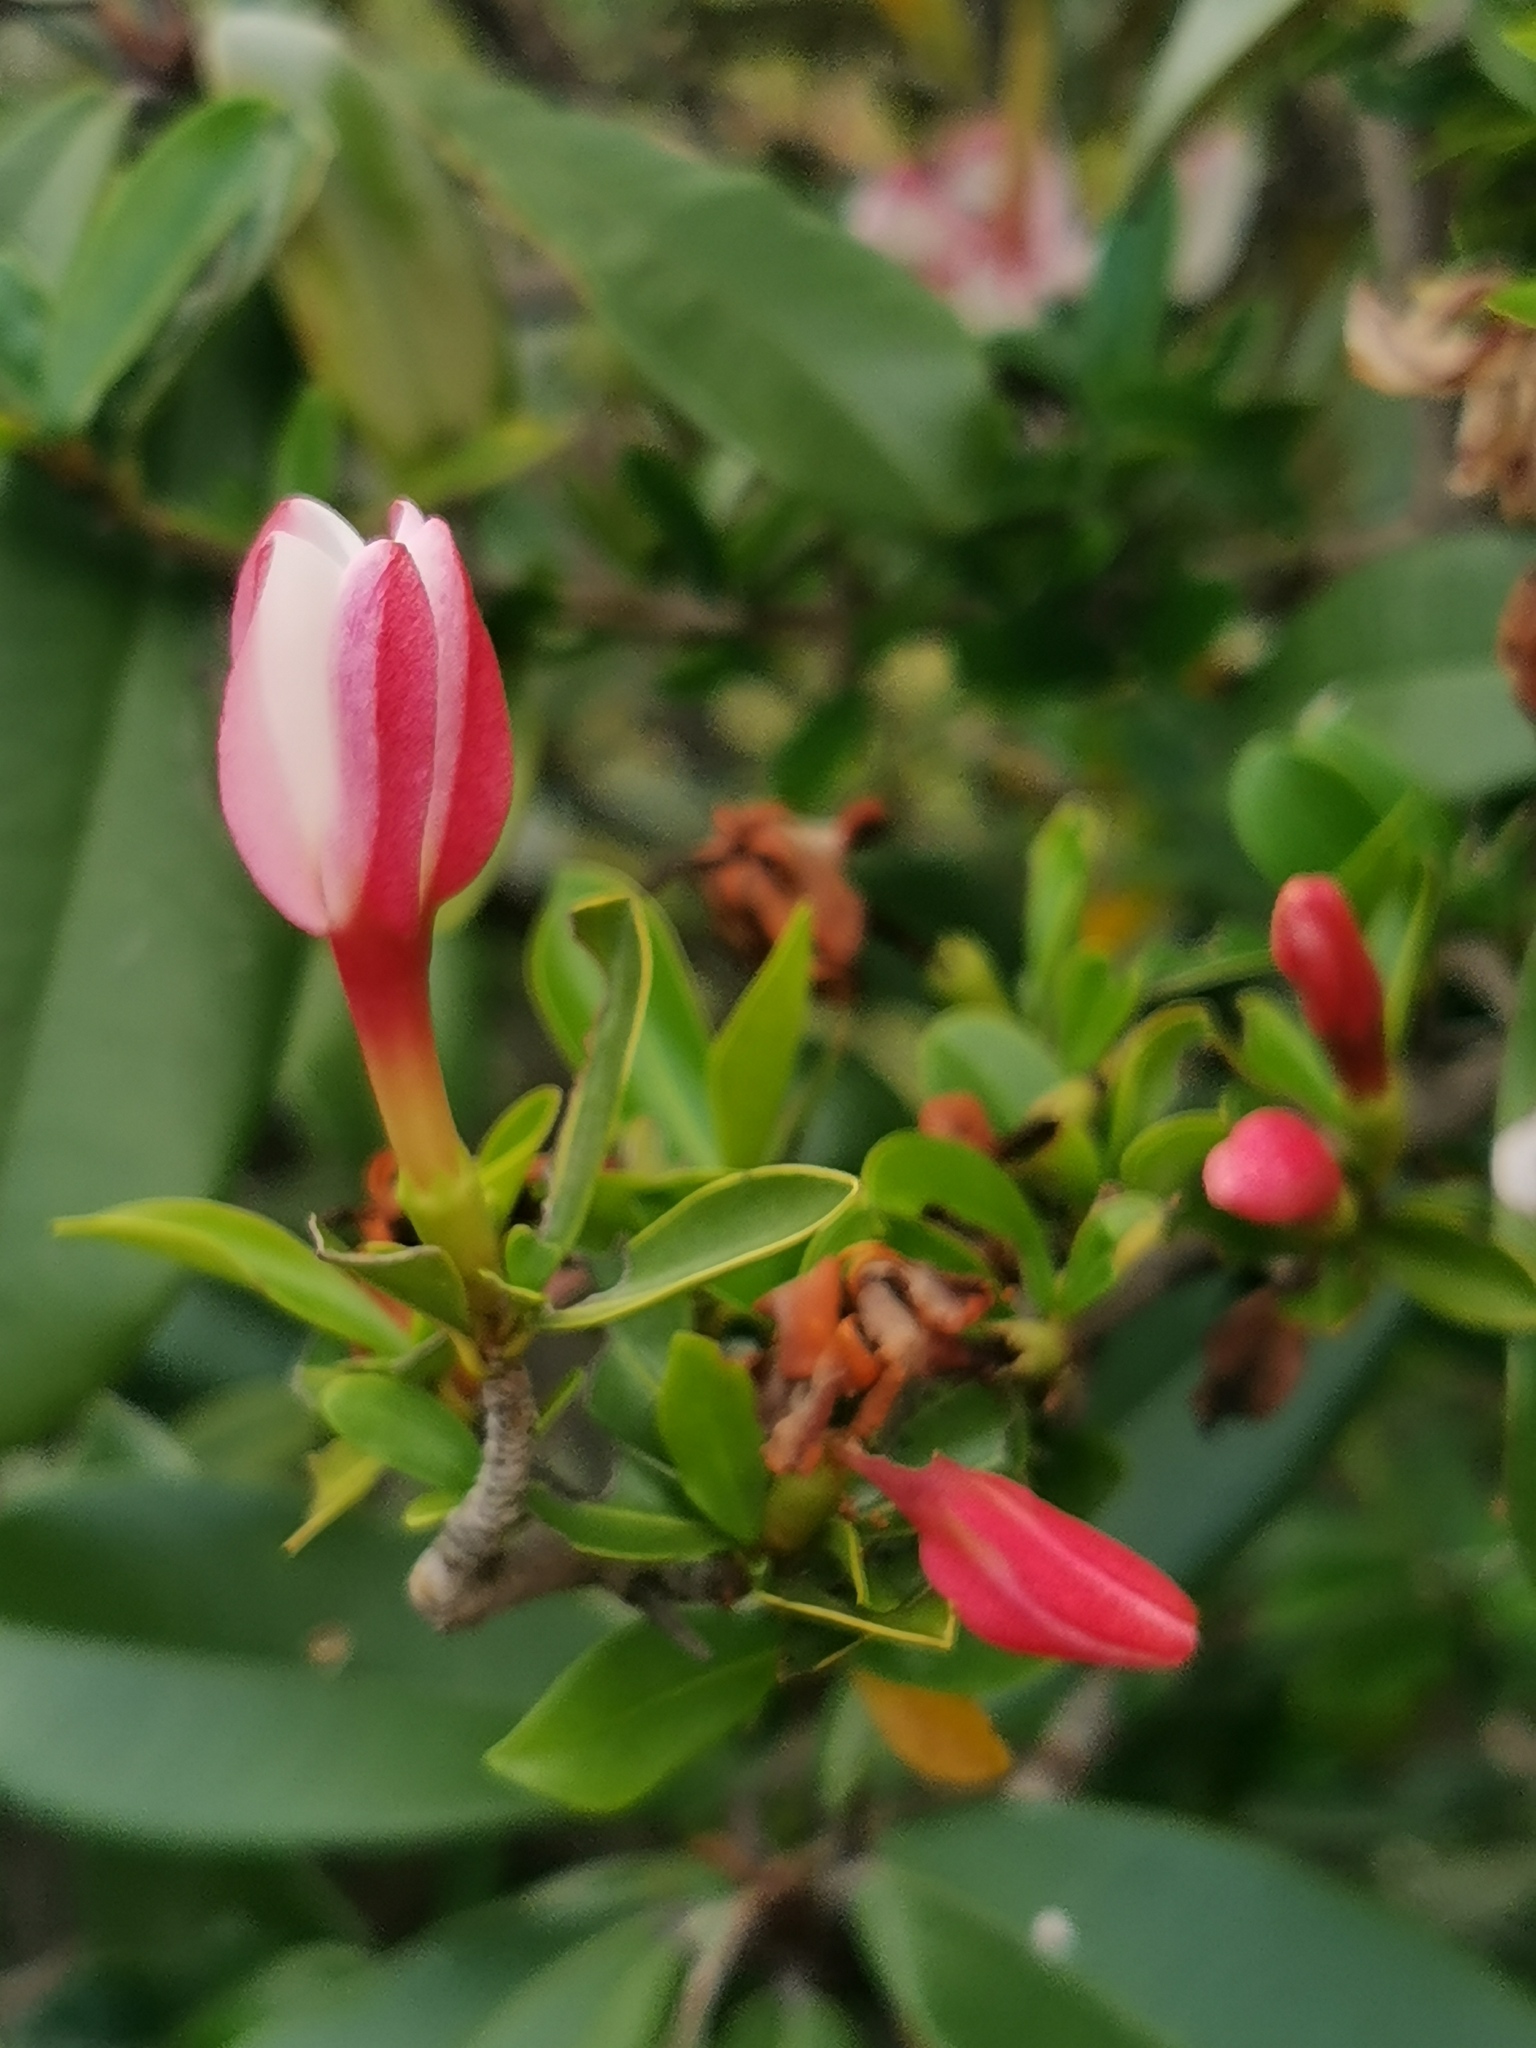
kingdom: Plantae
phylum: Tracheophyta
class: Magnoliopsida
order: Gentianales
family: Rubiaceae
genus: Hyperacanthus
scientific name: Hyperacanthus amoenus
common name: Spiny gardenia
